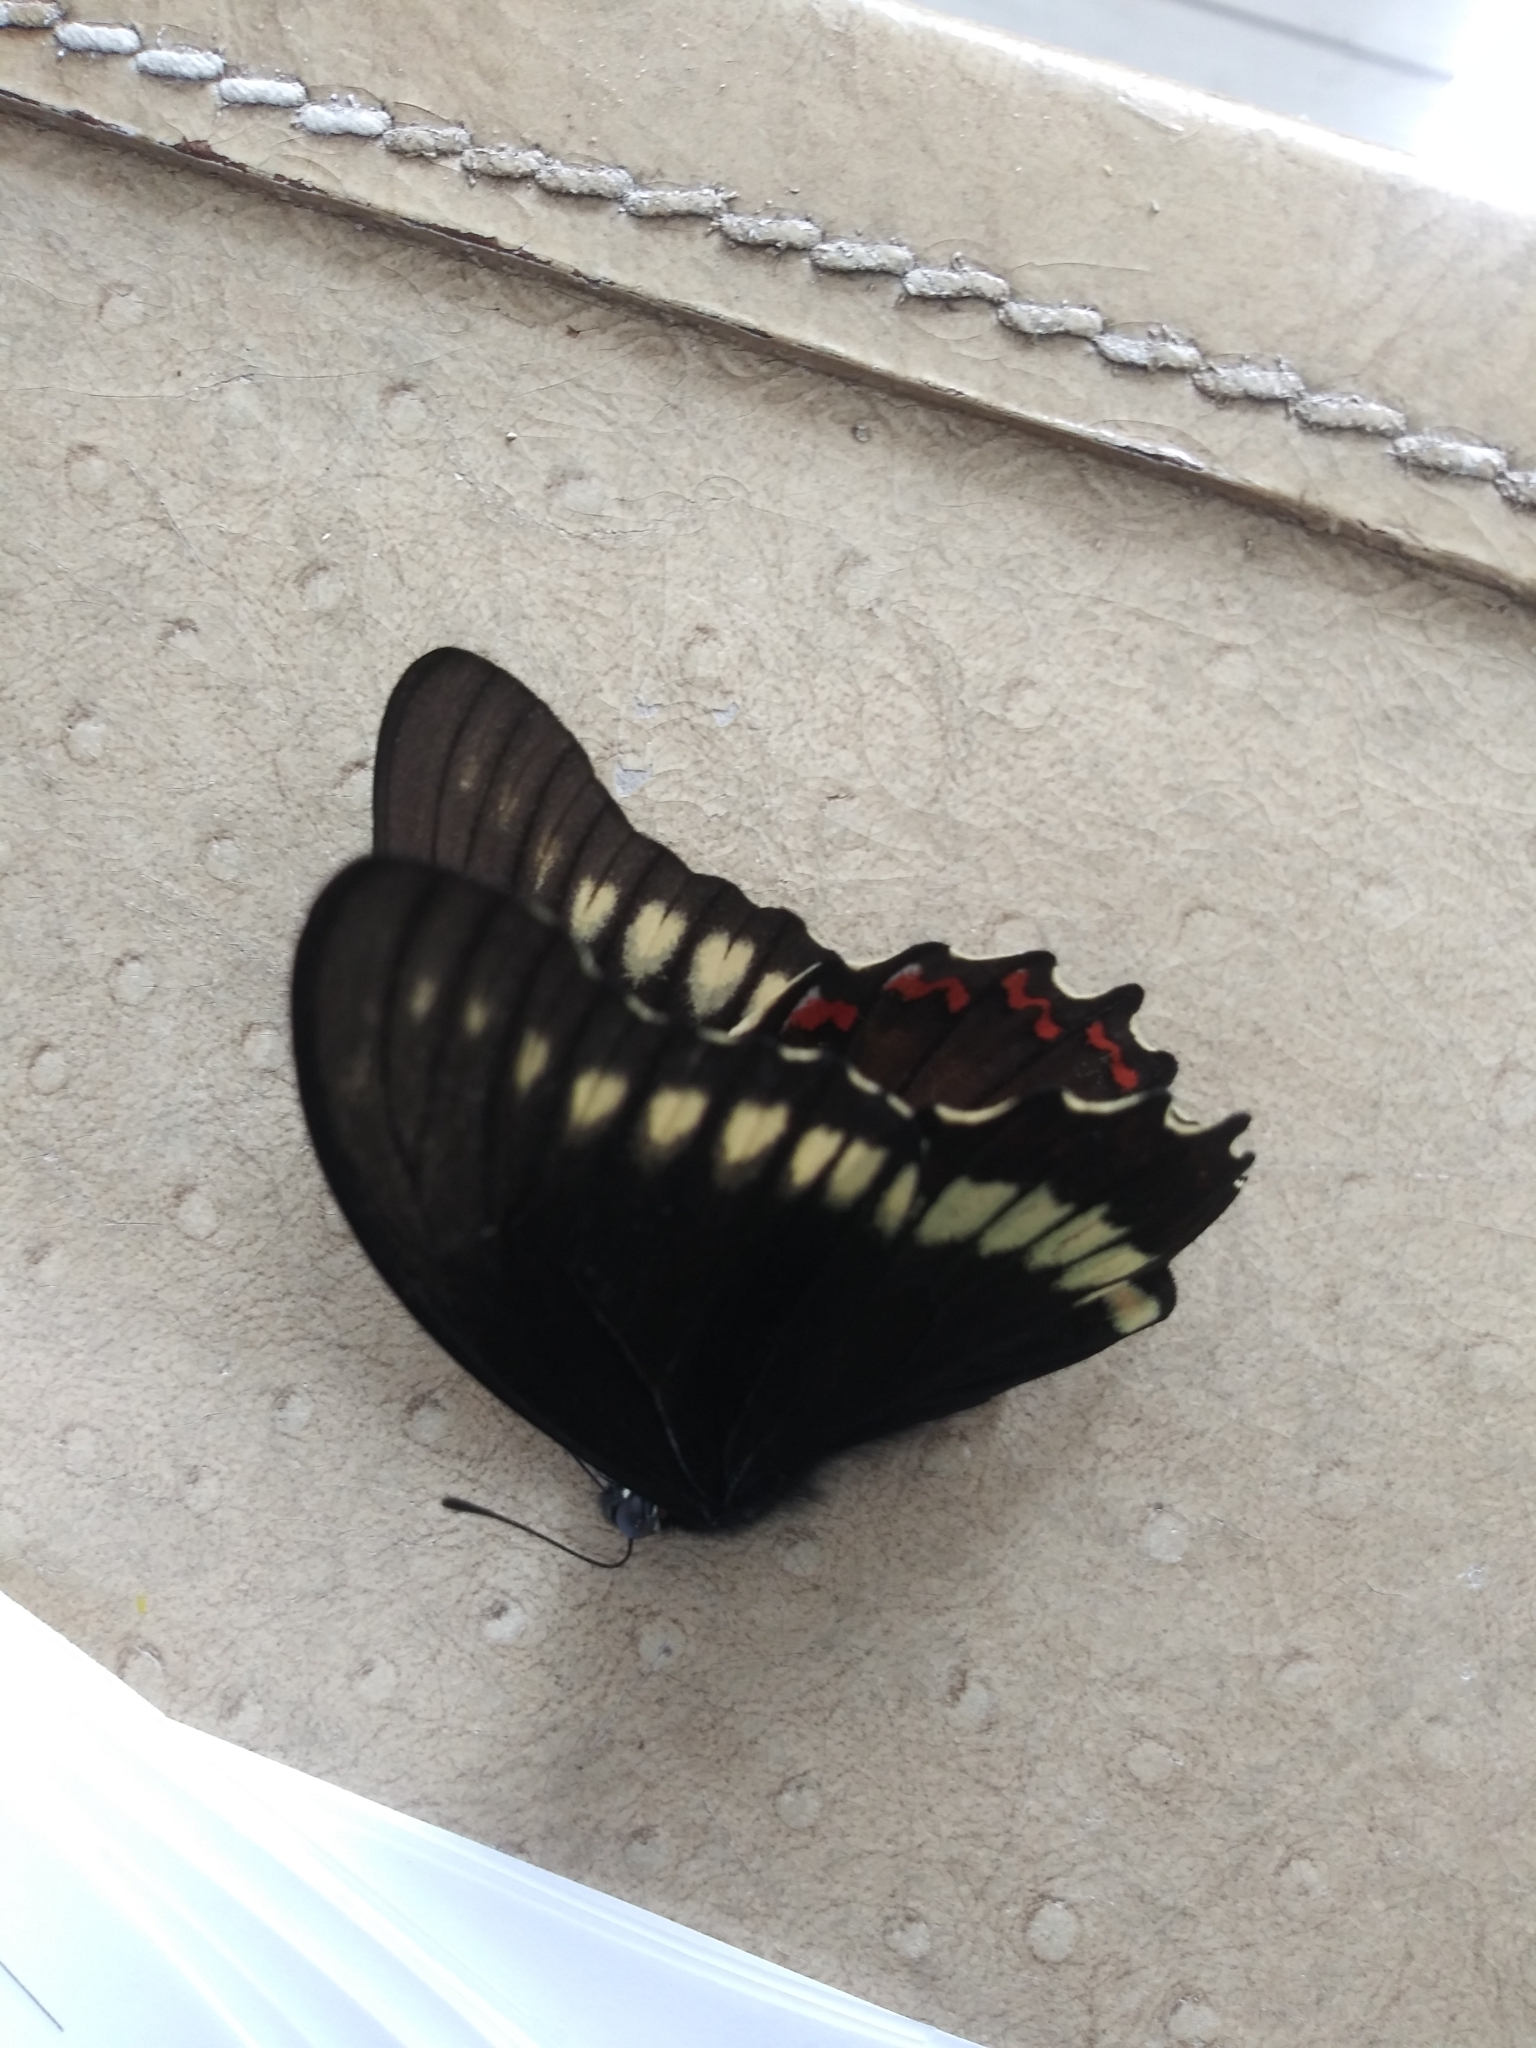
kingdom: Animalia
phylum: Arthropoda
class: Insecta
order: Lepidoptera
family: Papilionidae
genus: Battus
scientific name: Battus polydamas
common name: Polydamas swallowtail
